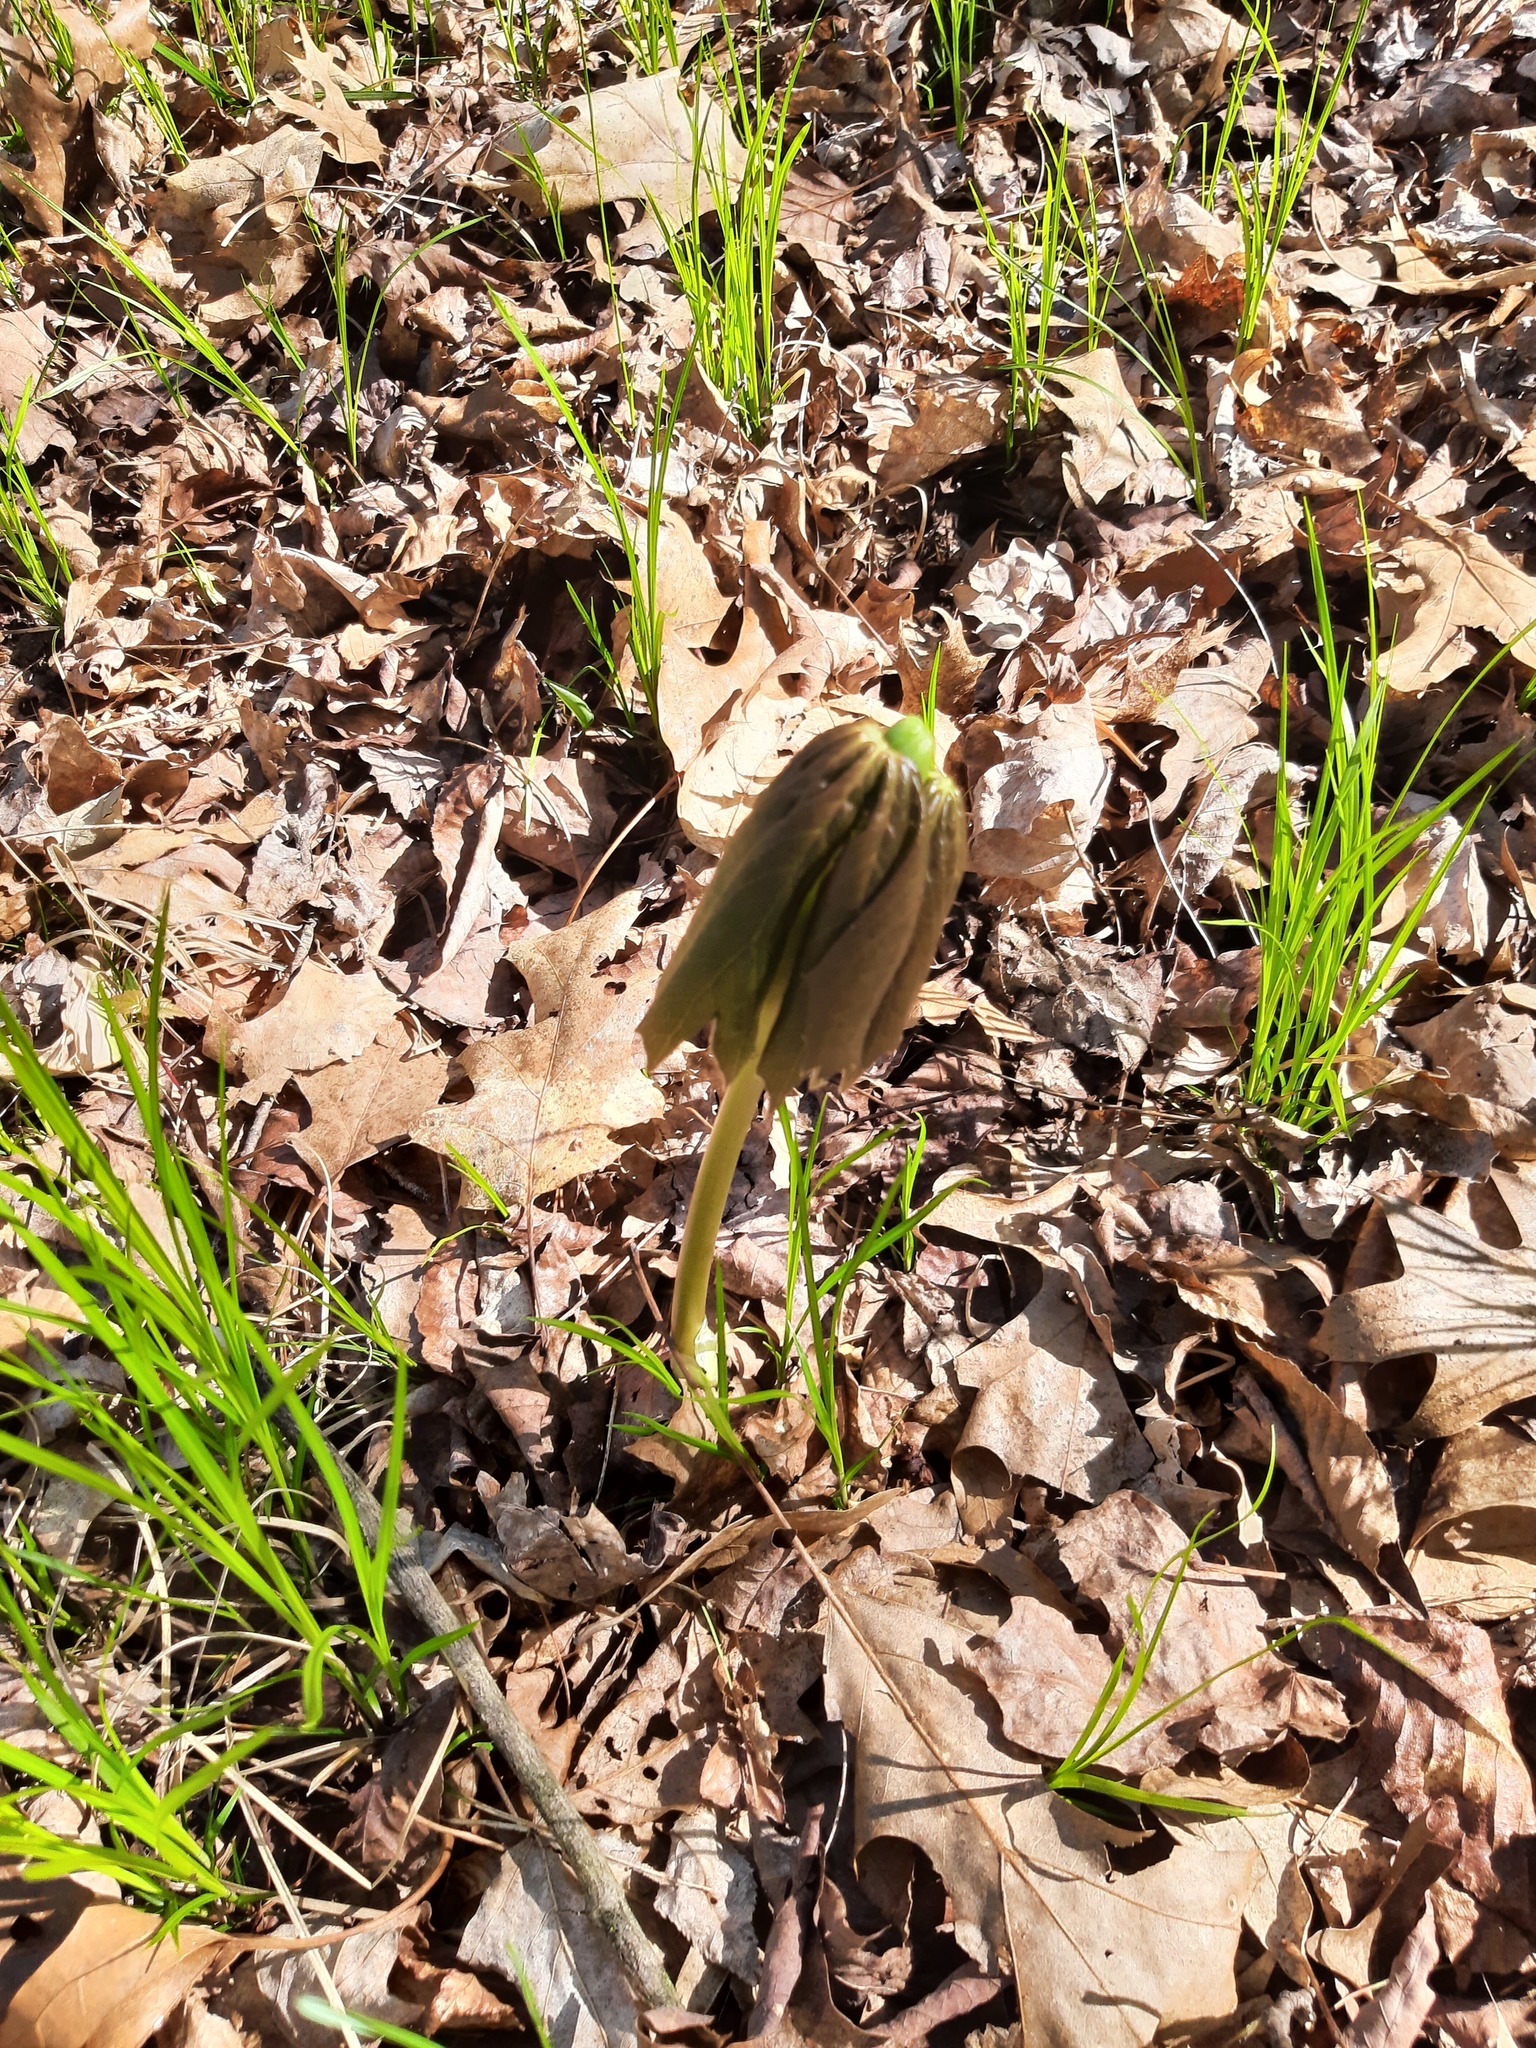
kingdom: Plantae
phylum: Tracheophyta
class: Magnoliopsida
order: Ranunculales
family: Berberidaceae
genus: Podophyllum
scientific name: Podophyllum peltatum
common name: Wild mandrake
